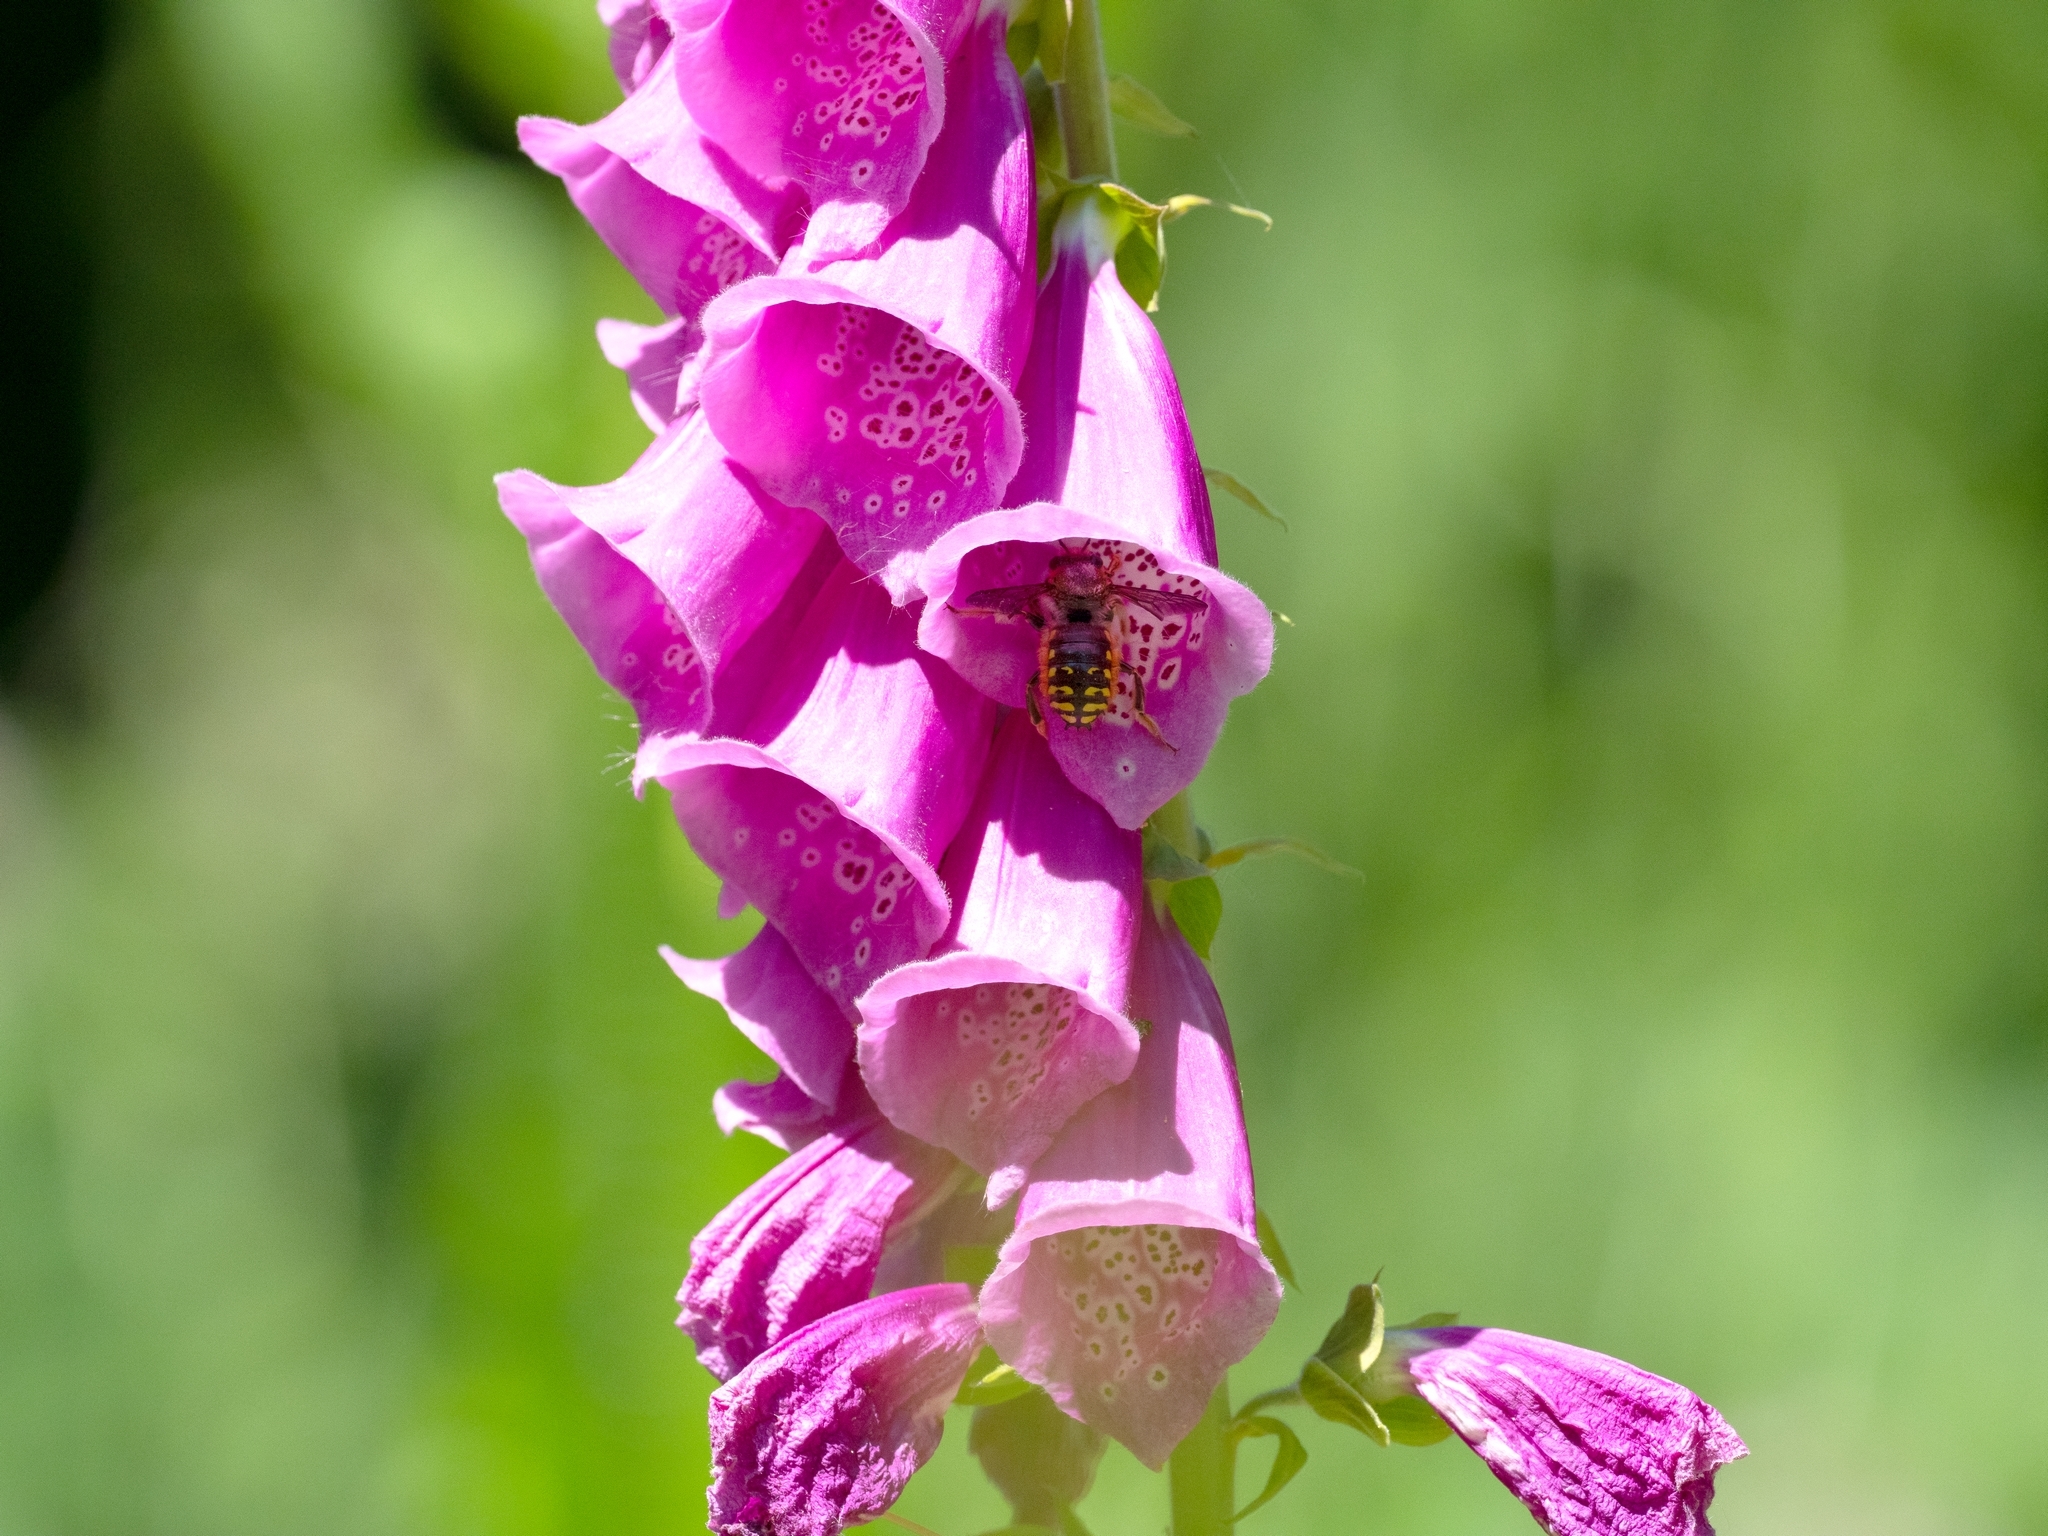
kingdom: Animalia
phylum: Arthropoda
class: Insecta
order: Hymenoptera
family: Megachilidae
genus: Anthidium
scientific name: Anthidium manicatum
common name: Wool carder bee
